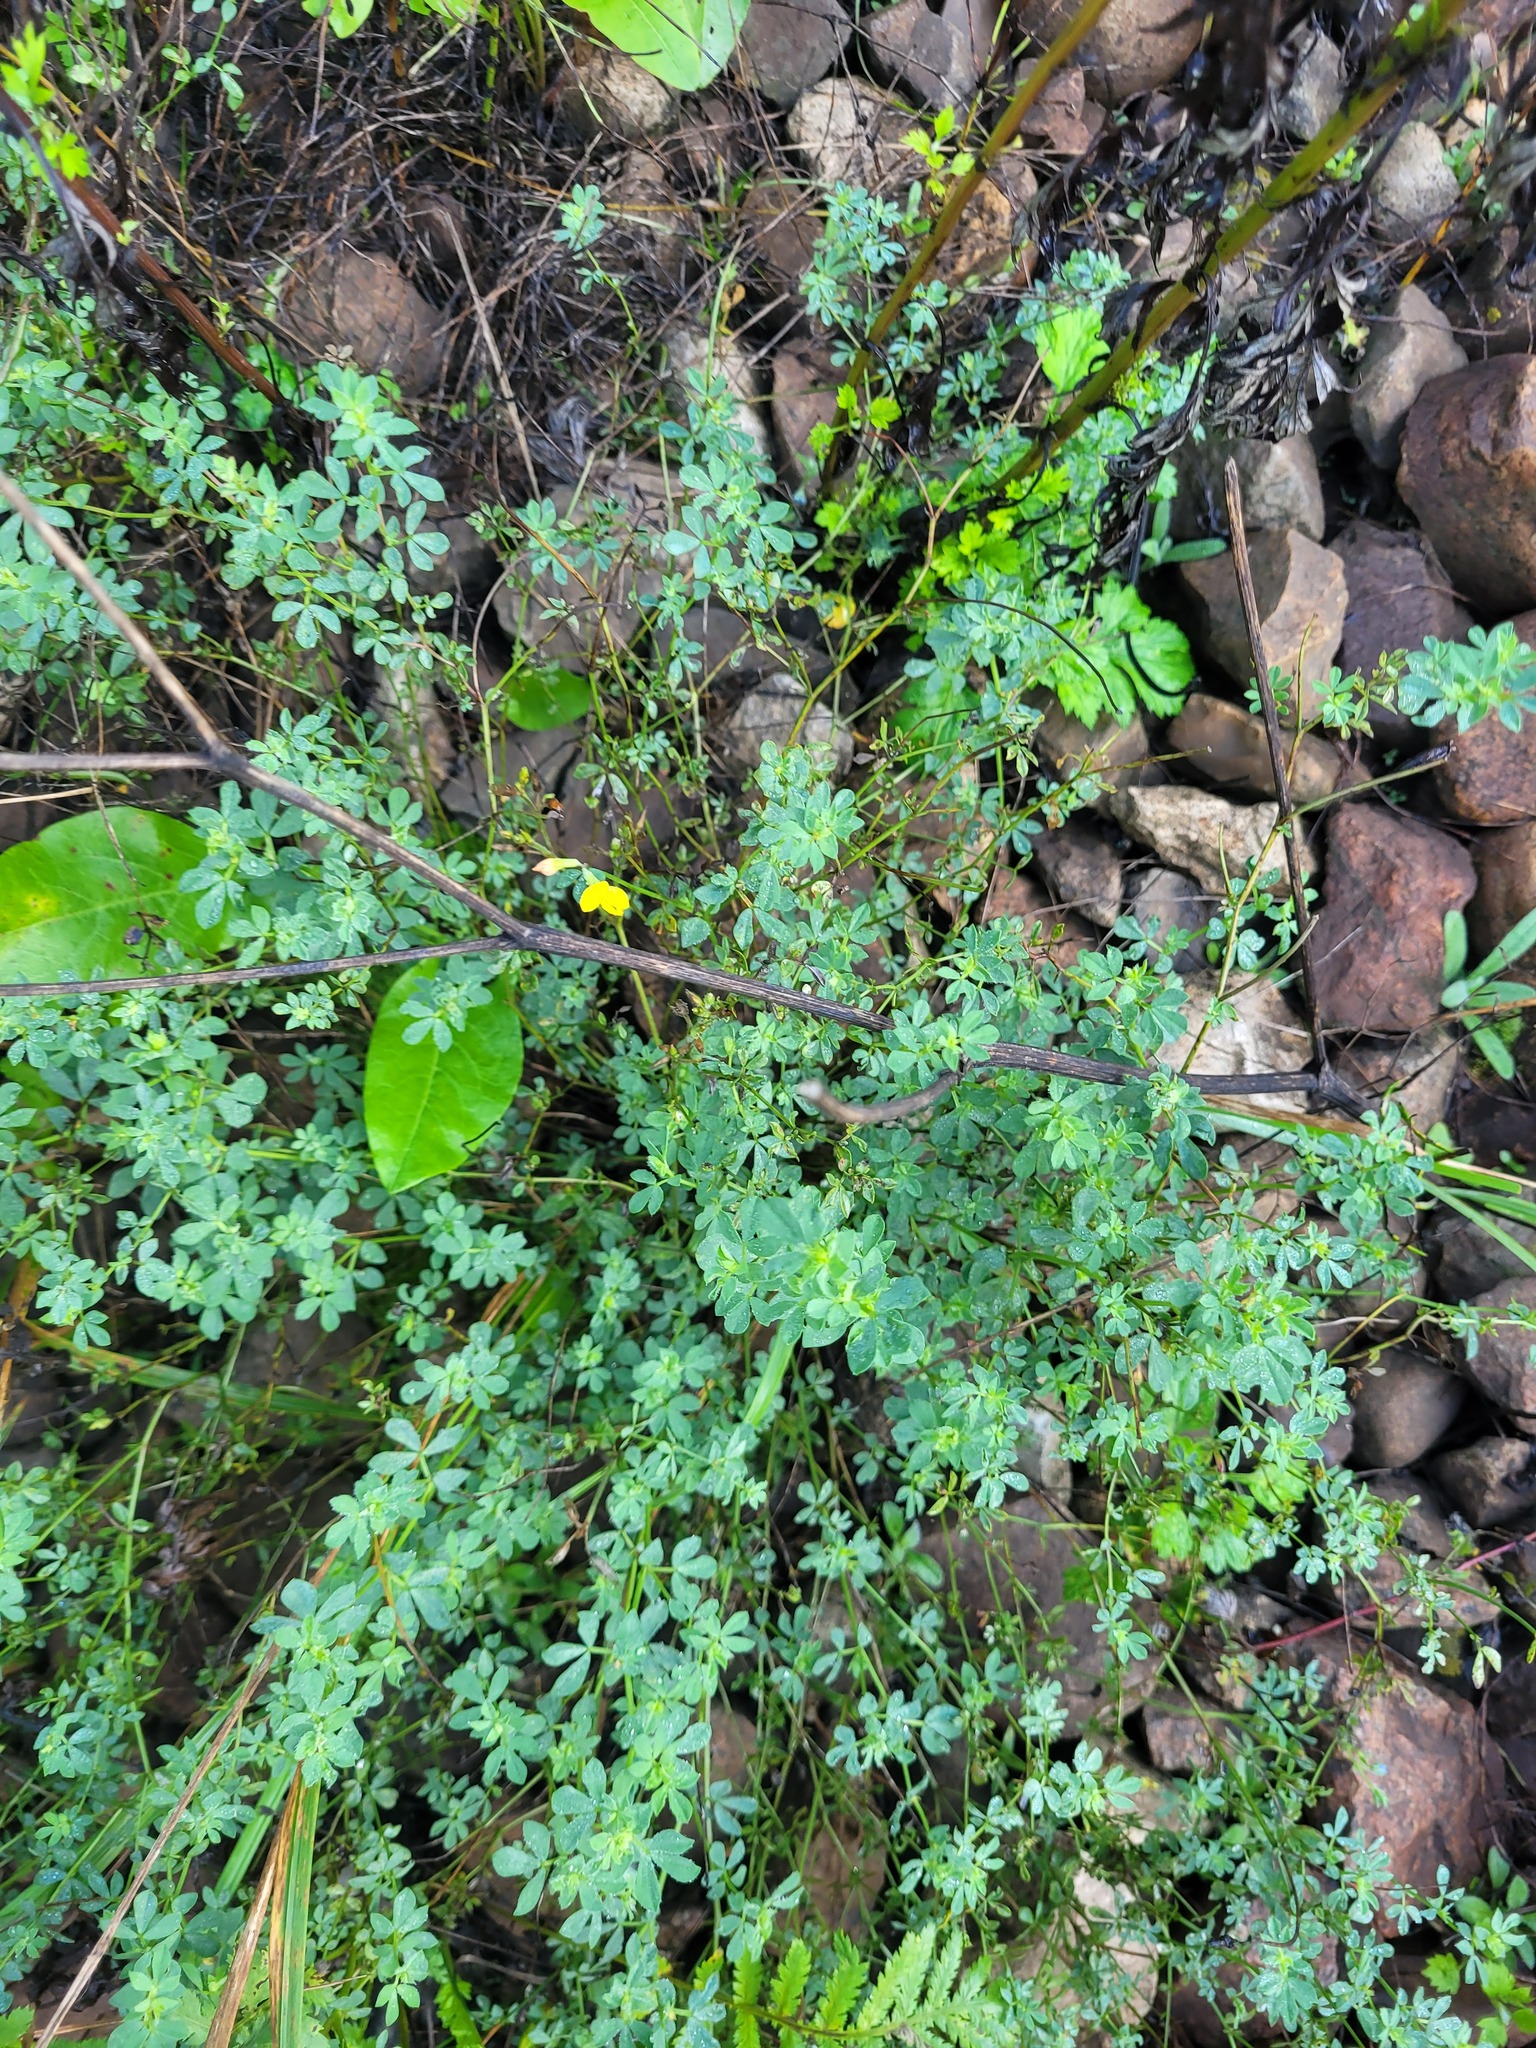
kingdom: Plantae
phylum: Tracheophyta
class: Magnoliopsida
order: Fabales
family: Fabaceae
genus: Lotus
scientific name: Lotus corniculatus
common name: Common bird's-foot-trefoil
